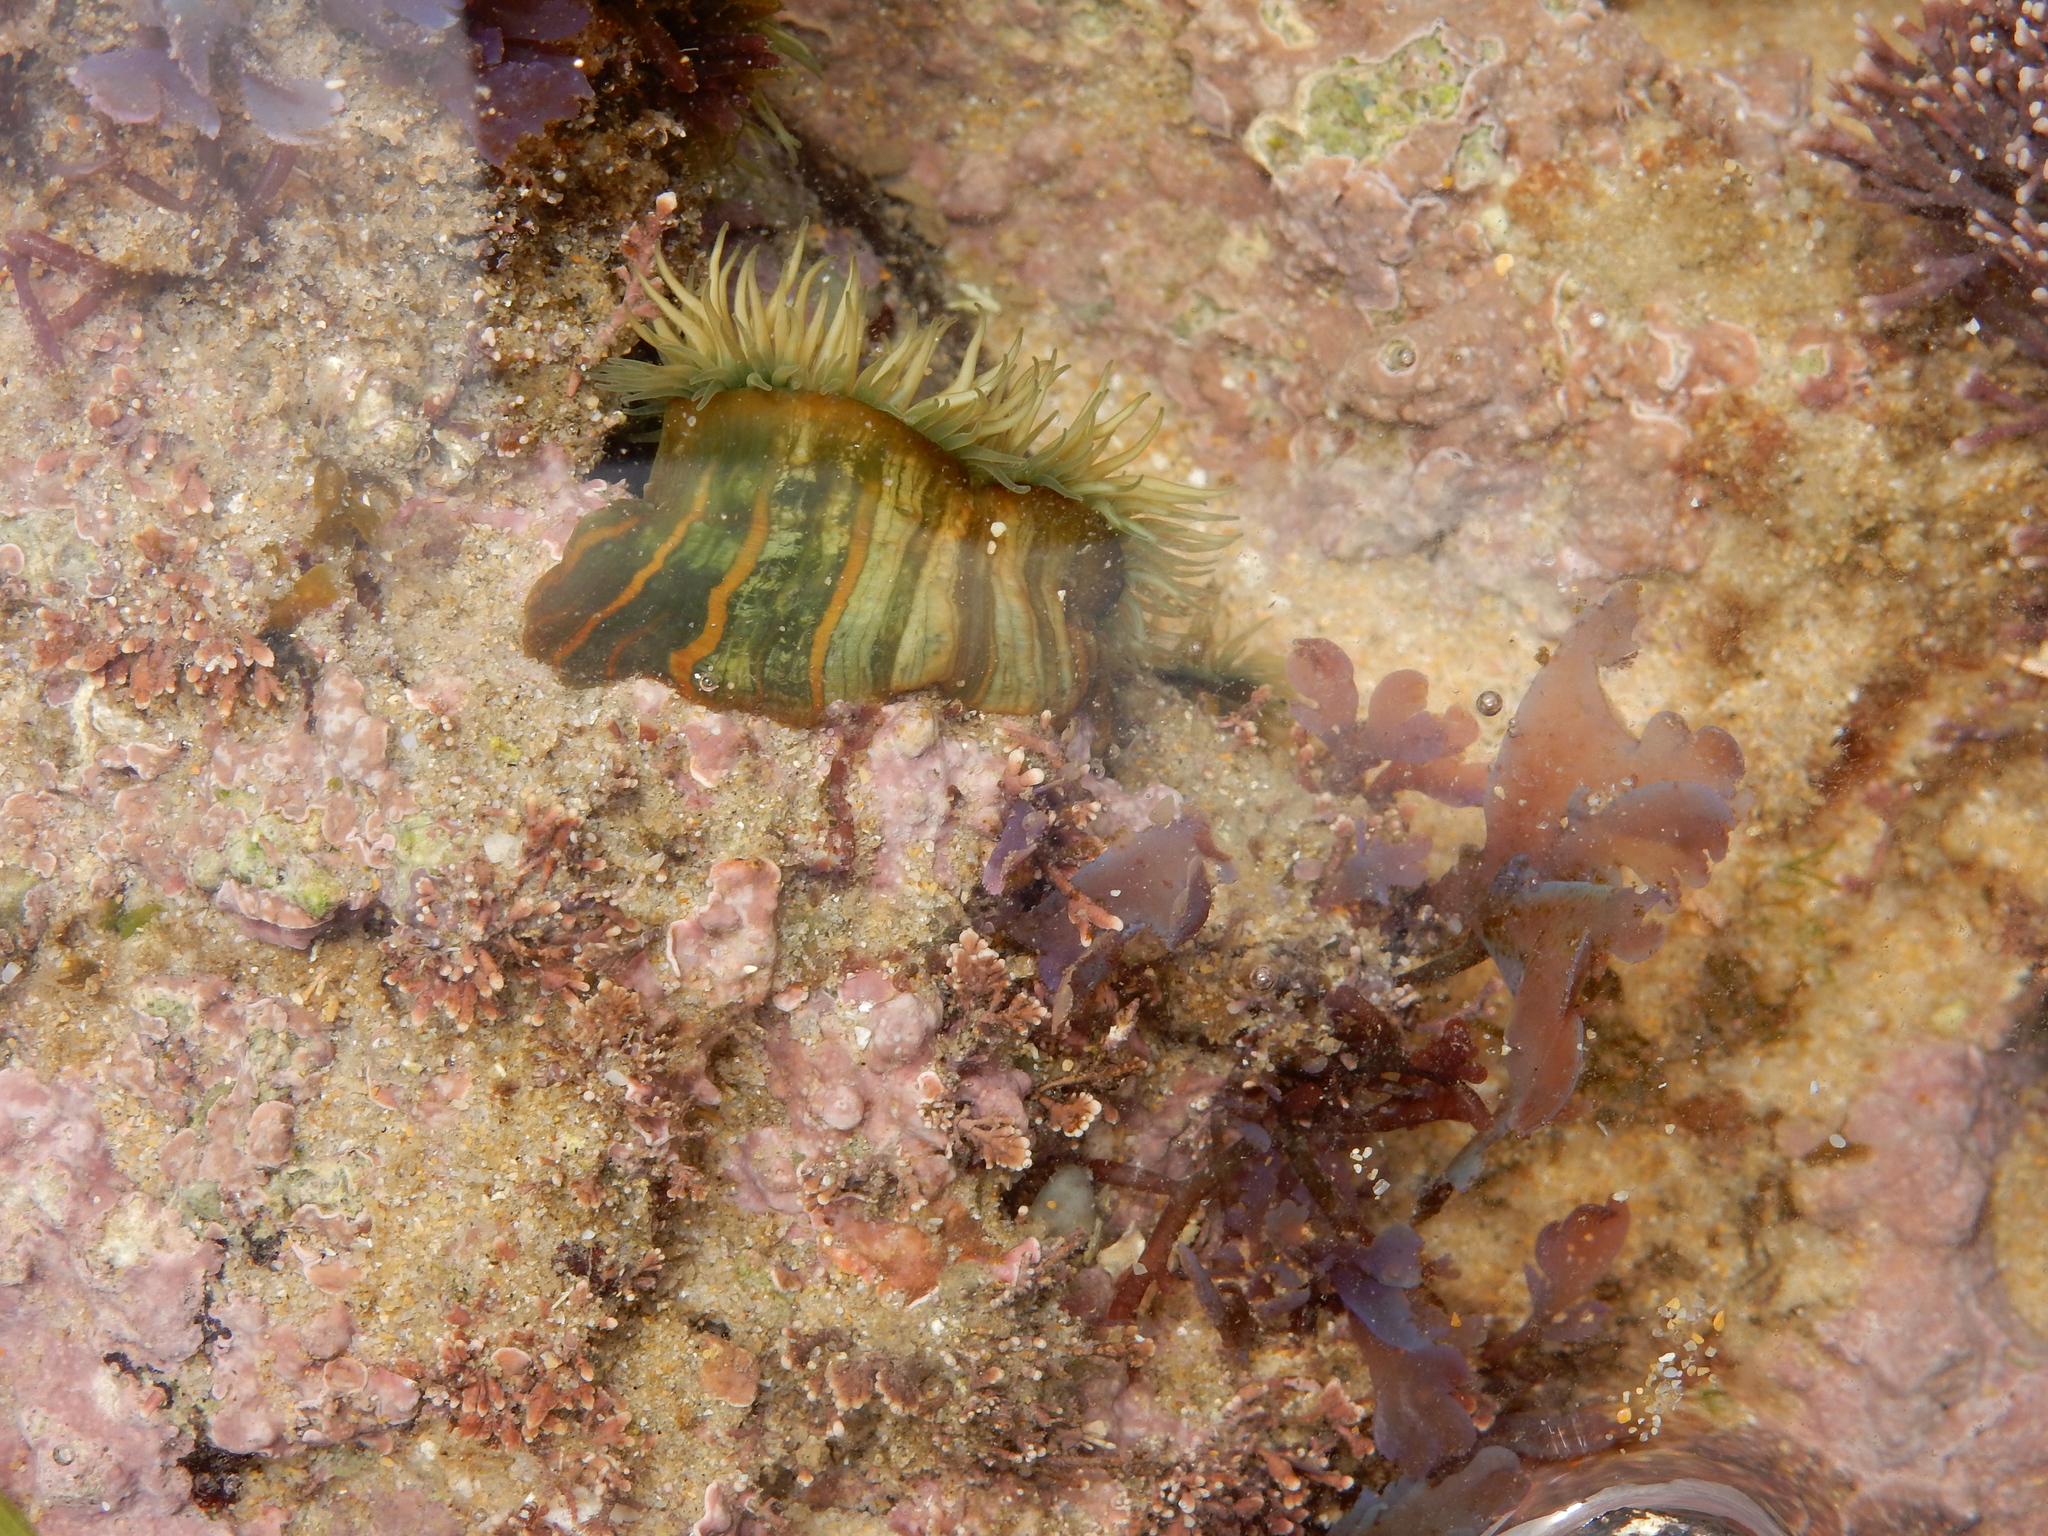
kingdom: Animalia
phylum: Cnidaria
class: Anthozoa
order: Actiniaria
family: Sagartiidae
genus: Anthothoe
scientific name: Anthothoe stimpsonii
